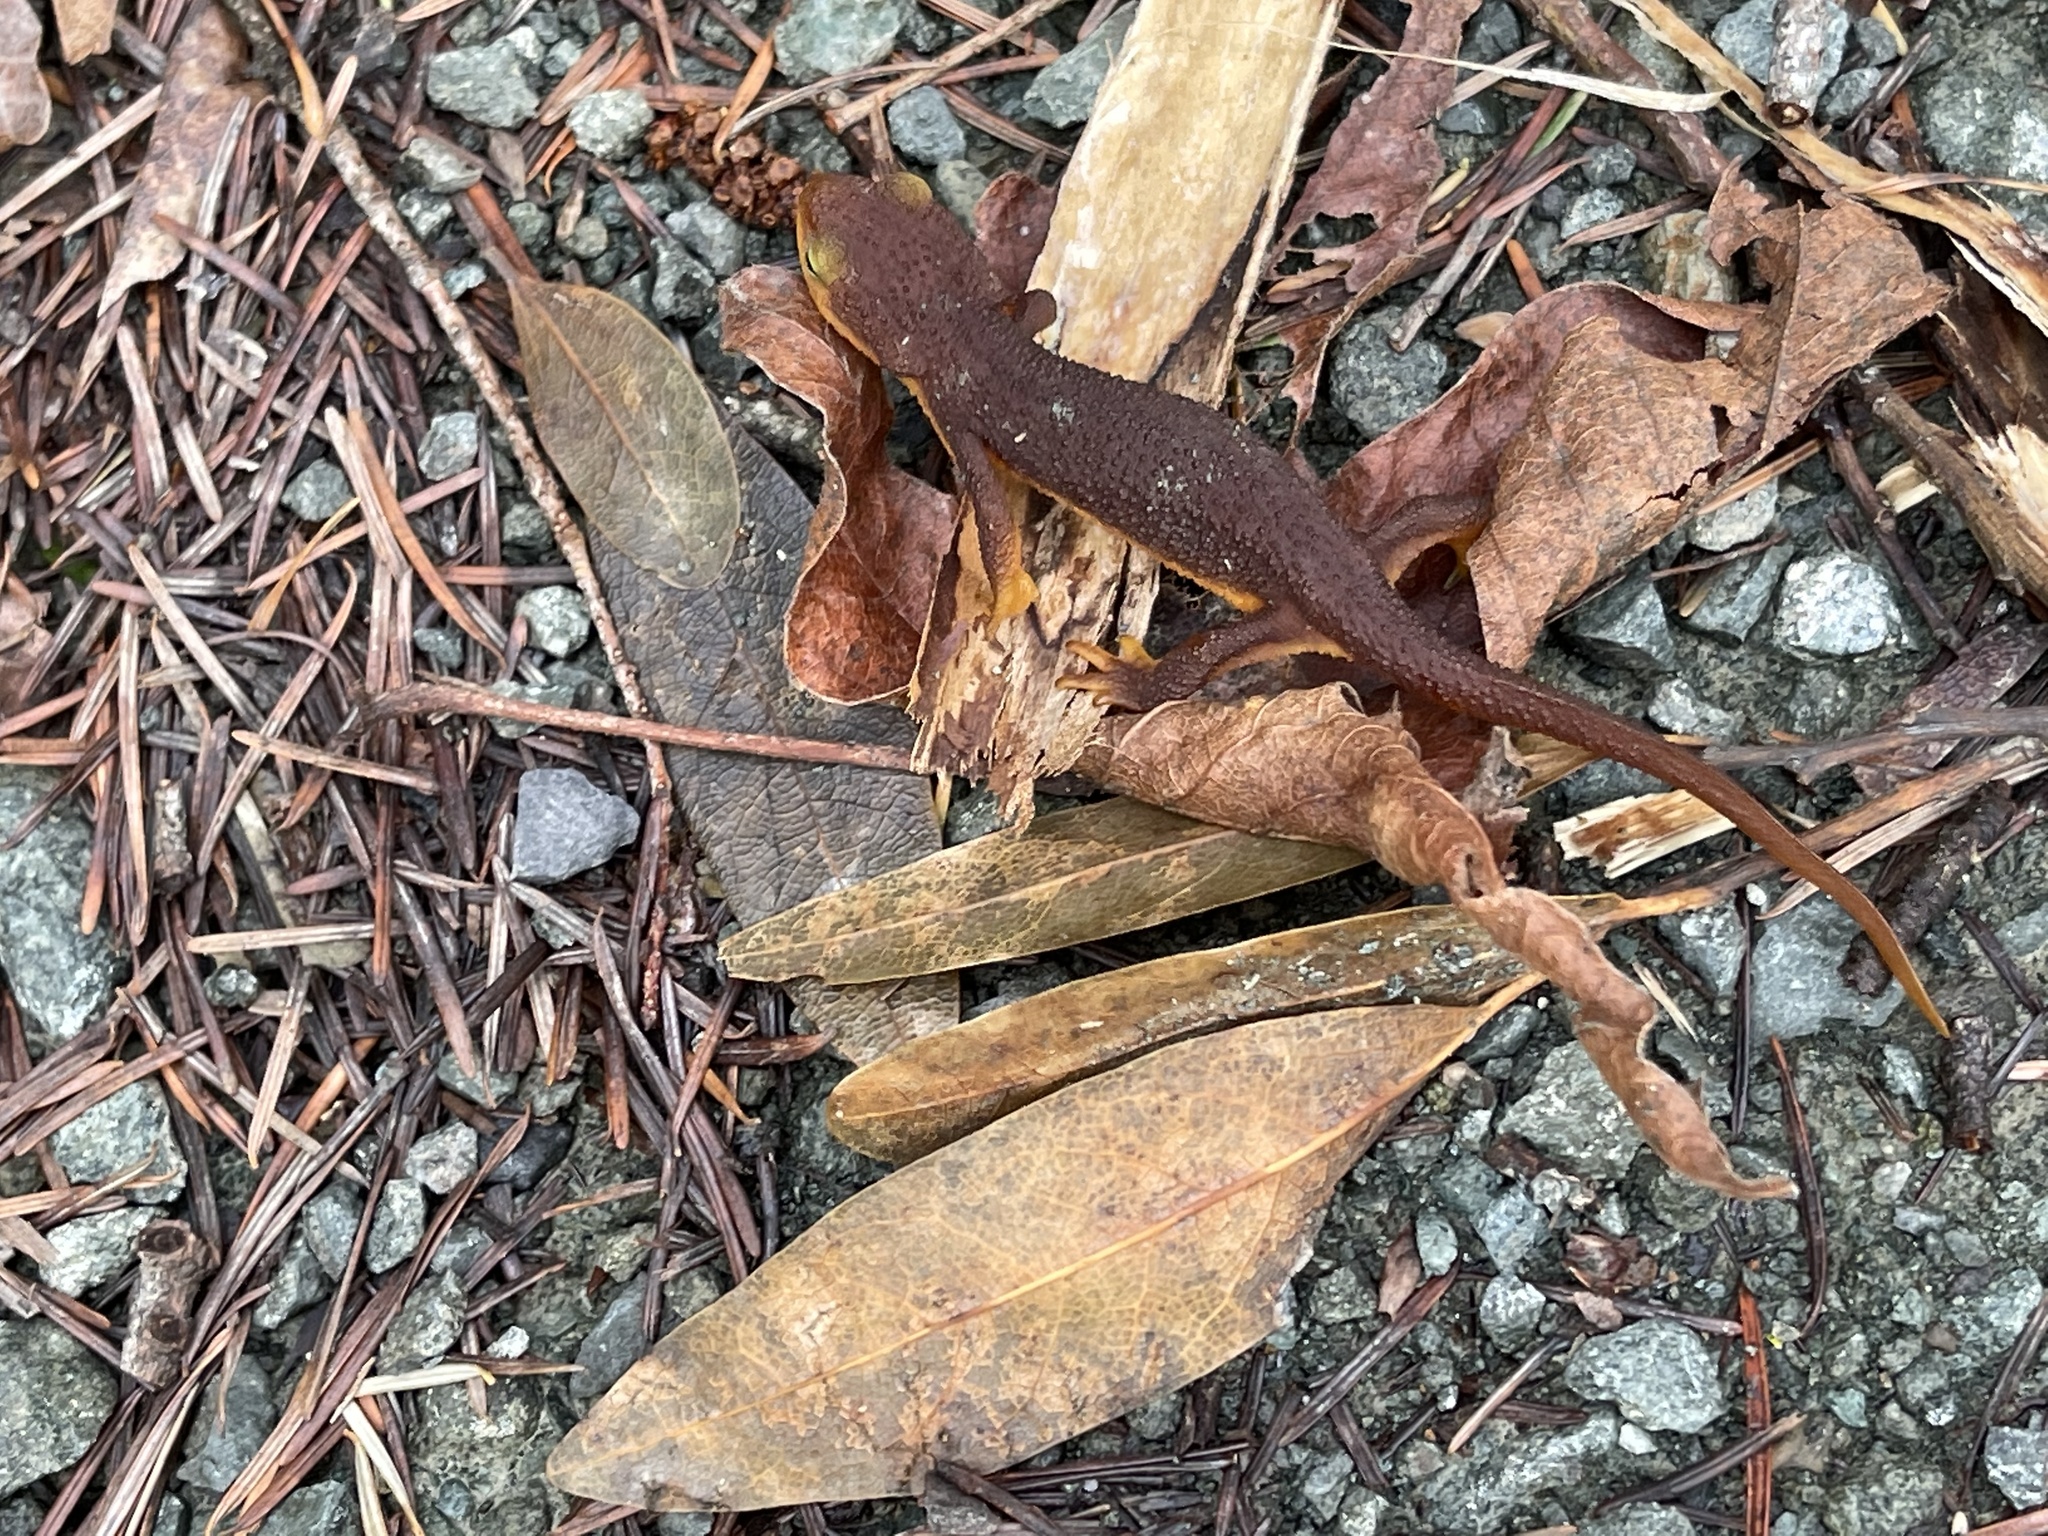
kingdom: Animalia
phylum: Chordata
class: Amphibia
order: Caudata
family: Salamandridae
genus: Taricha
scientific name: Taricha torosa
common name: California newt
